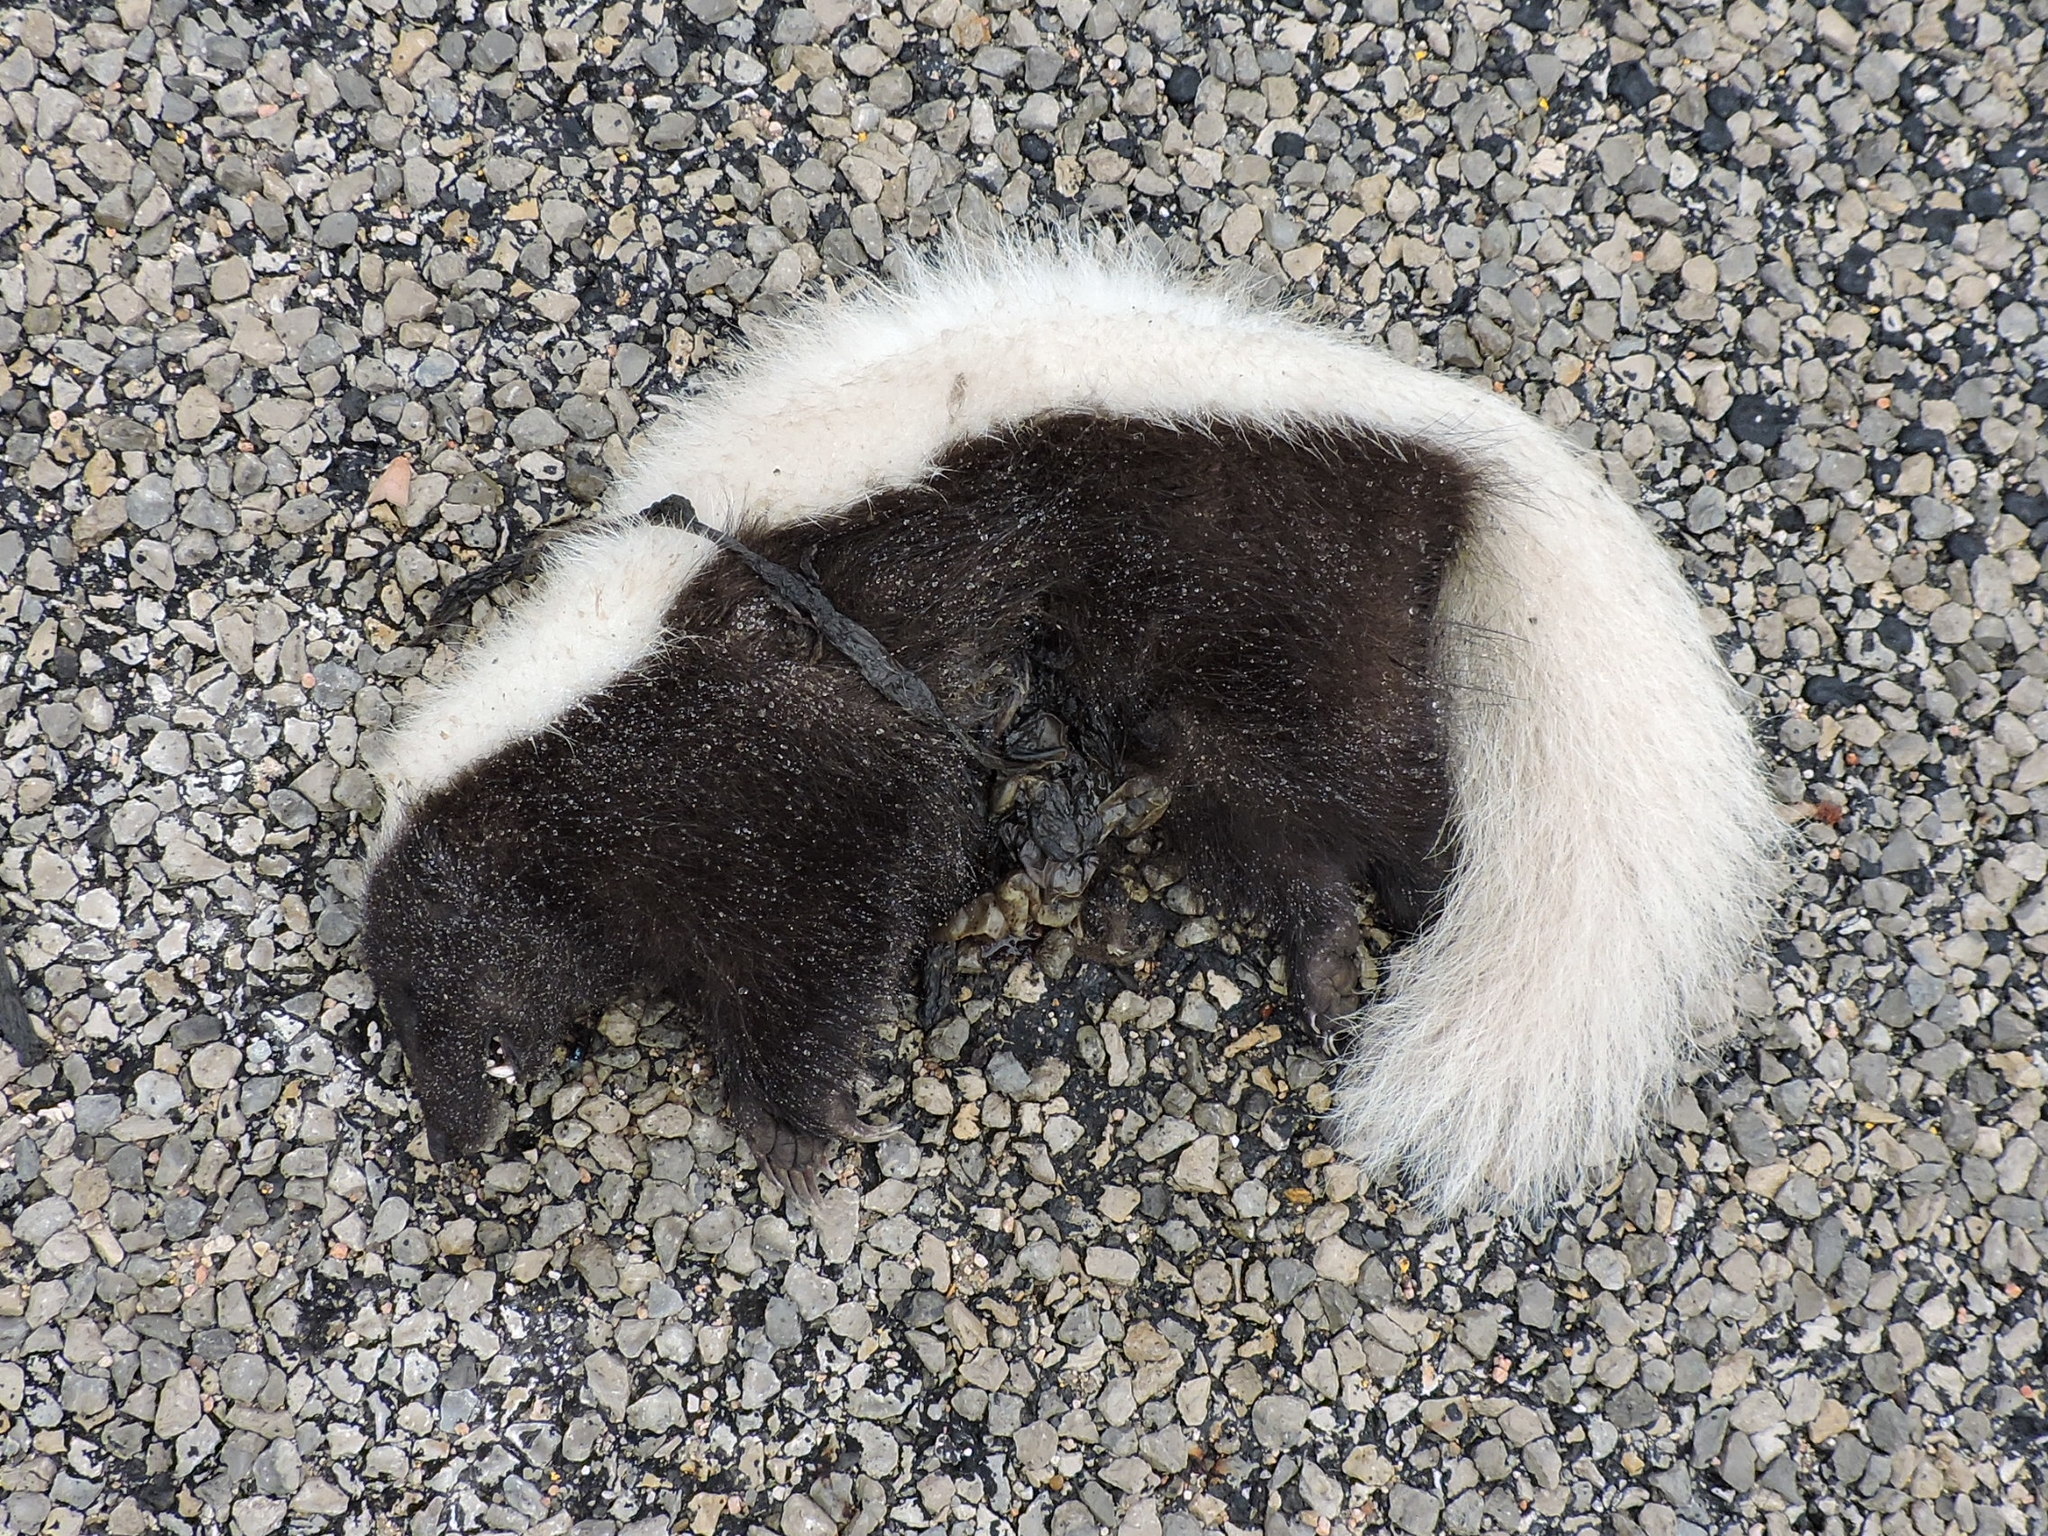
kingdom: Animalia
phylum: Chordata
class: Mammalia
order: Carnivora
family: Mephitidae
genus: Conepatus
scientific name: Conepatus leuconotus
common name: Eastern hog-nosed skunk
